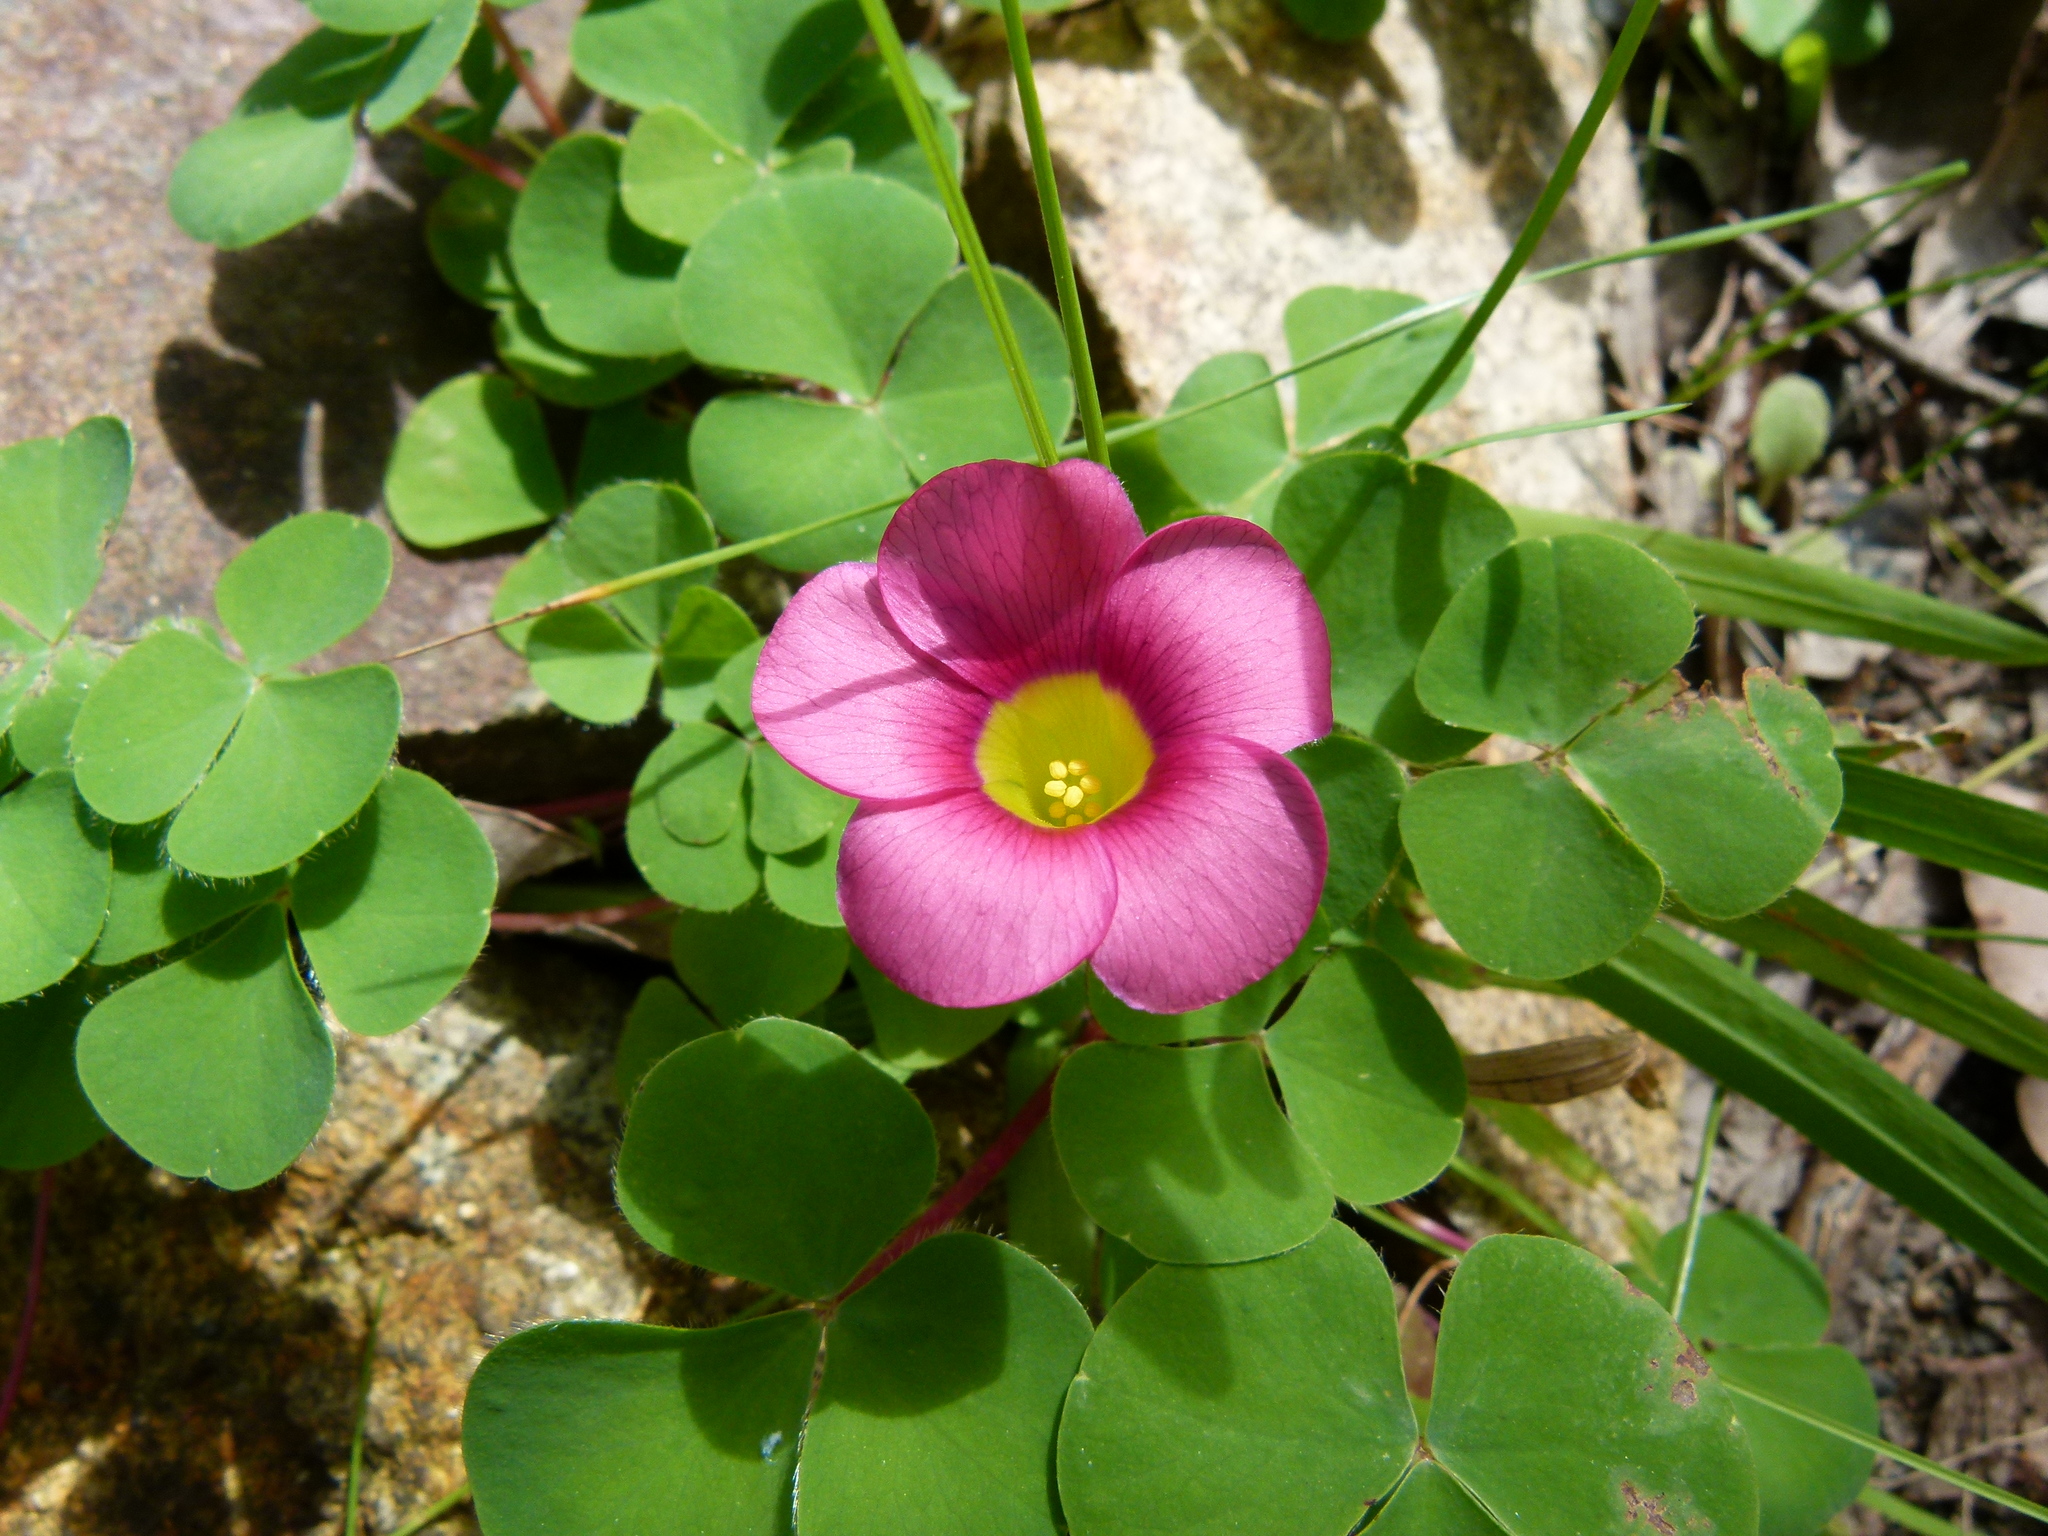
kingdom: Plantae
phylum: Tracheophyta
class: Magnoliopsida
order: Oxalidales
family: Oxalidaceae
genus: Oxalis
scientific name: Oxalis purpurea
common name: Purple woodsorrel
